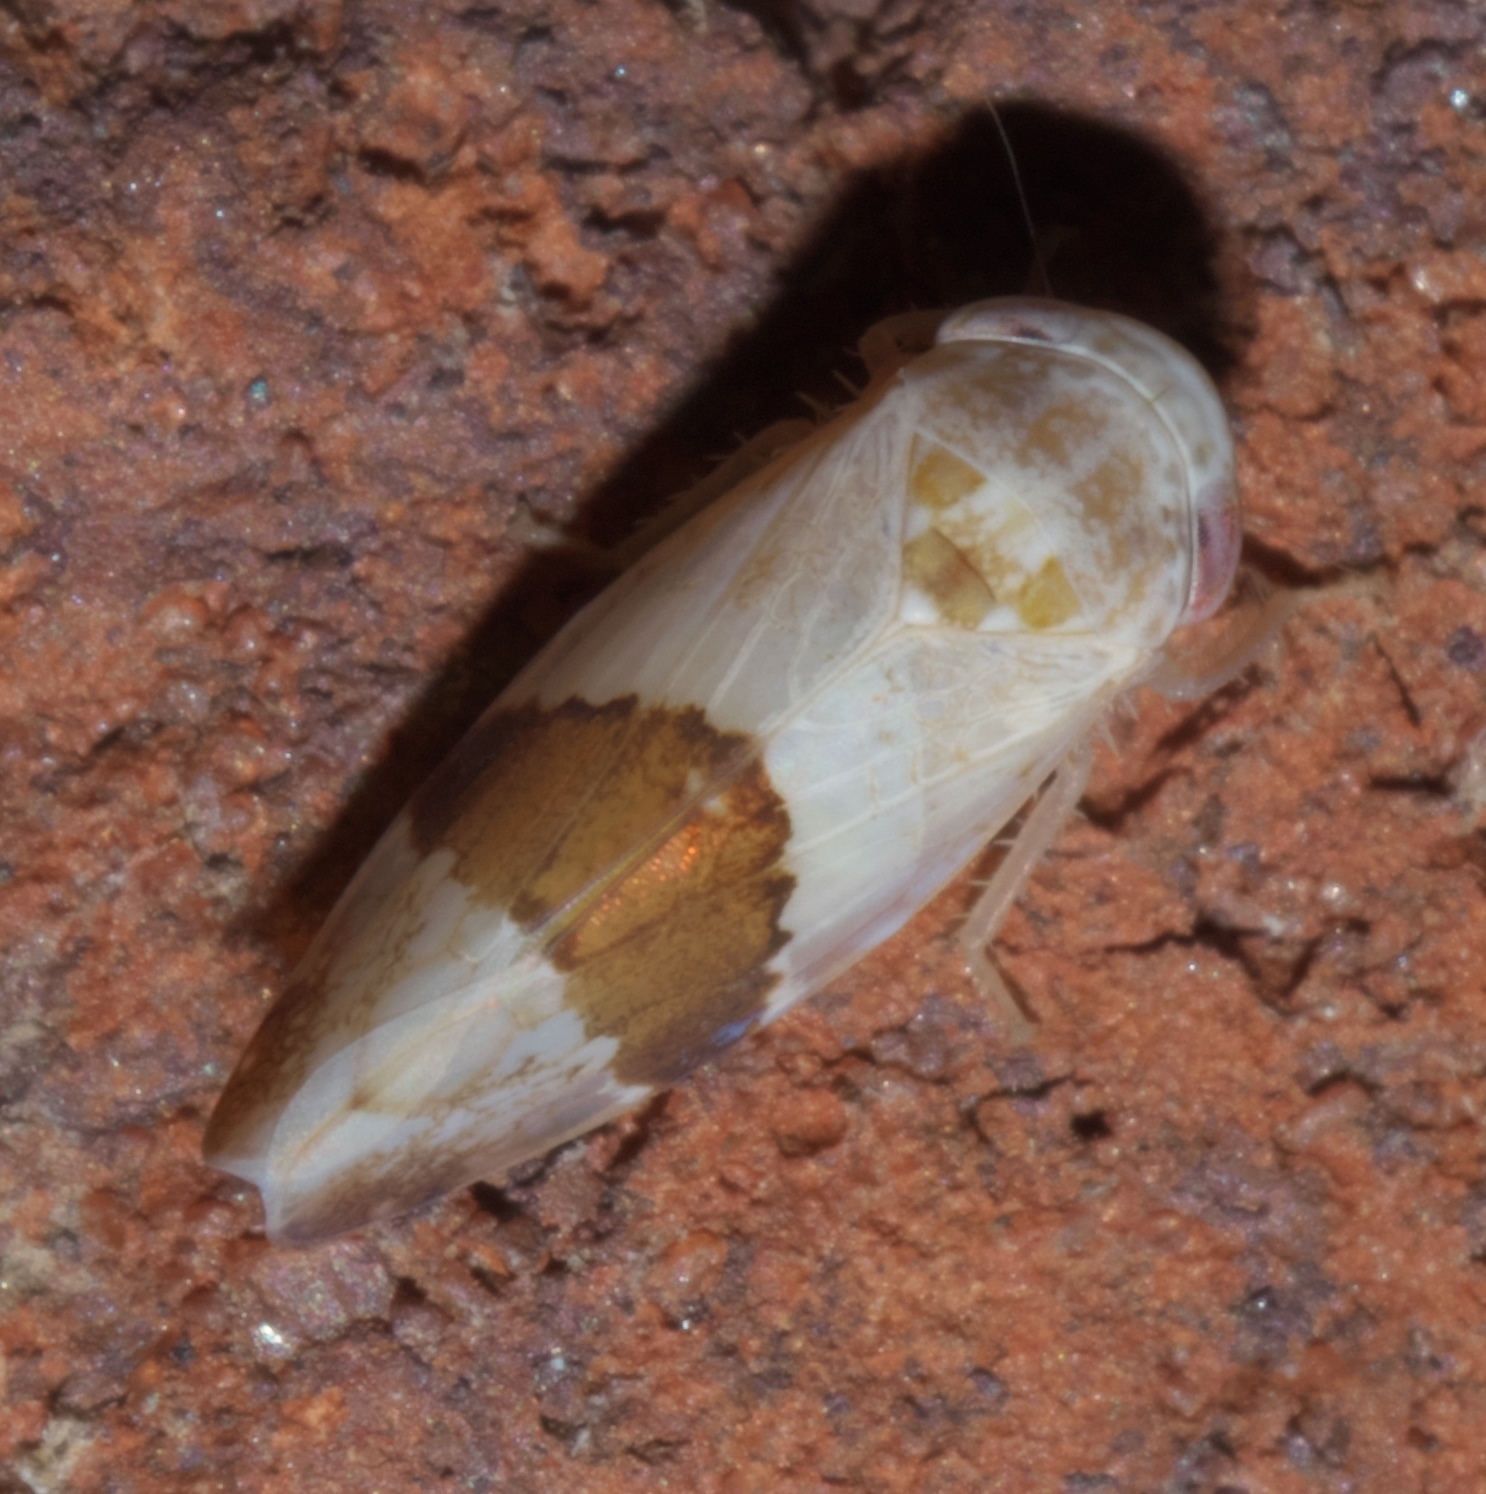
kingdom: Animalia
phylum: Arthropoda
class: Insecta
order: Hemiptera
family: Cicadellidae
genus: Norvellina
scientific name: Norvellina seminuda
